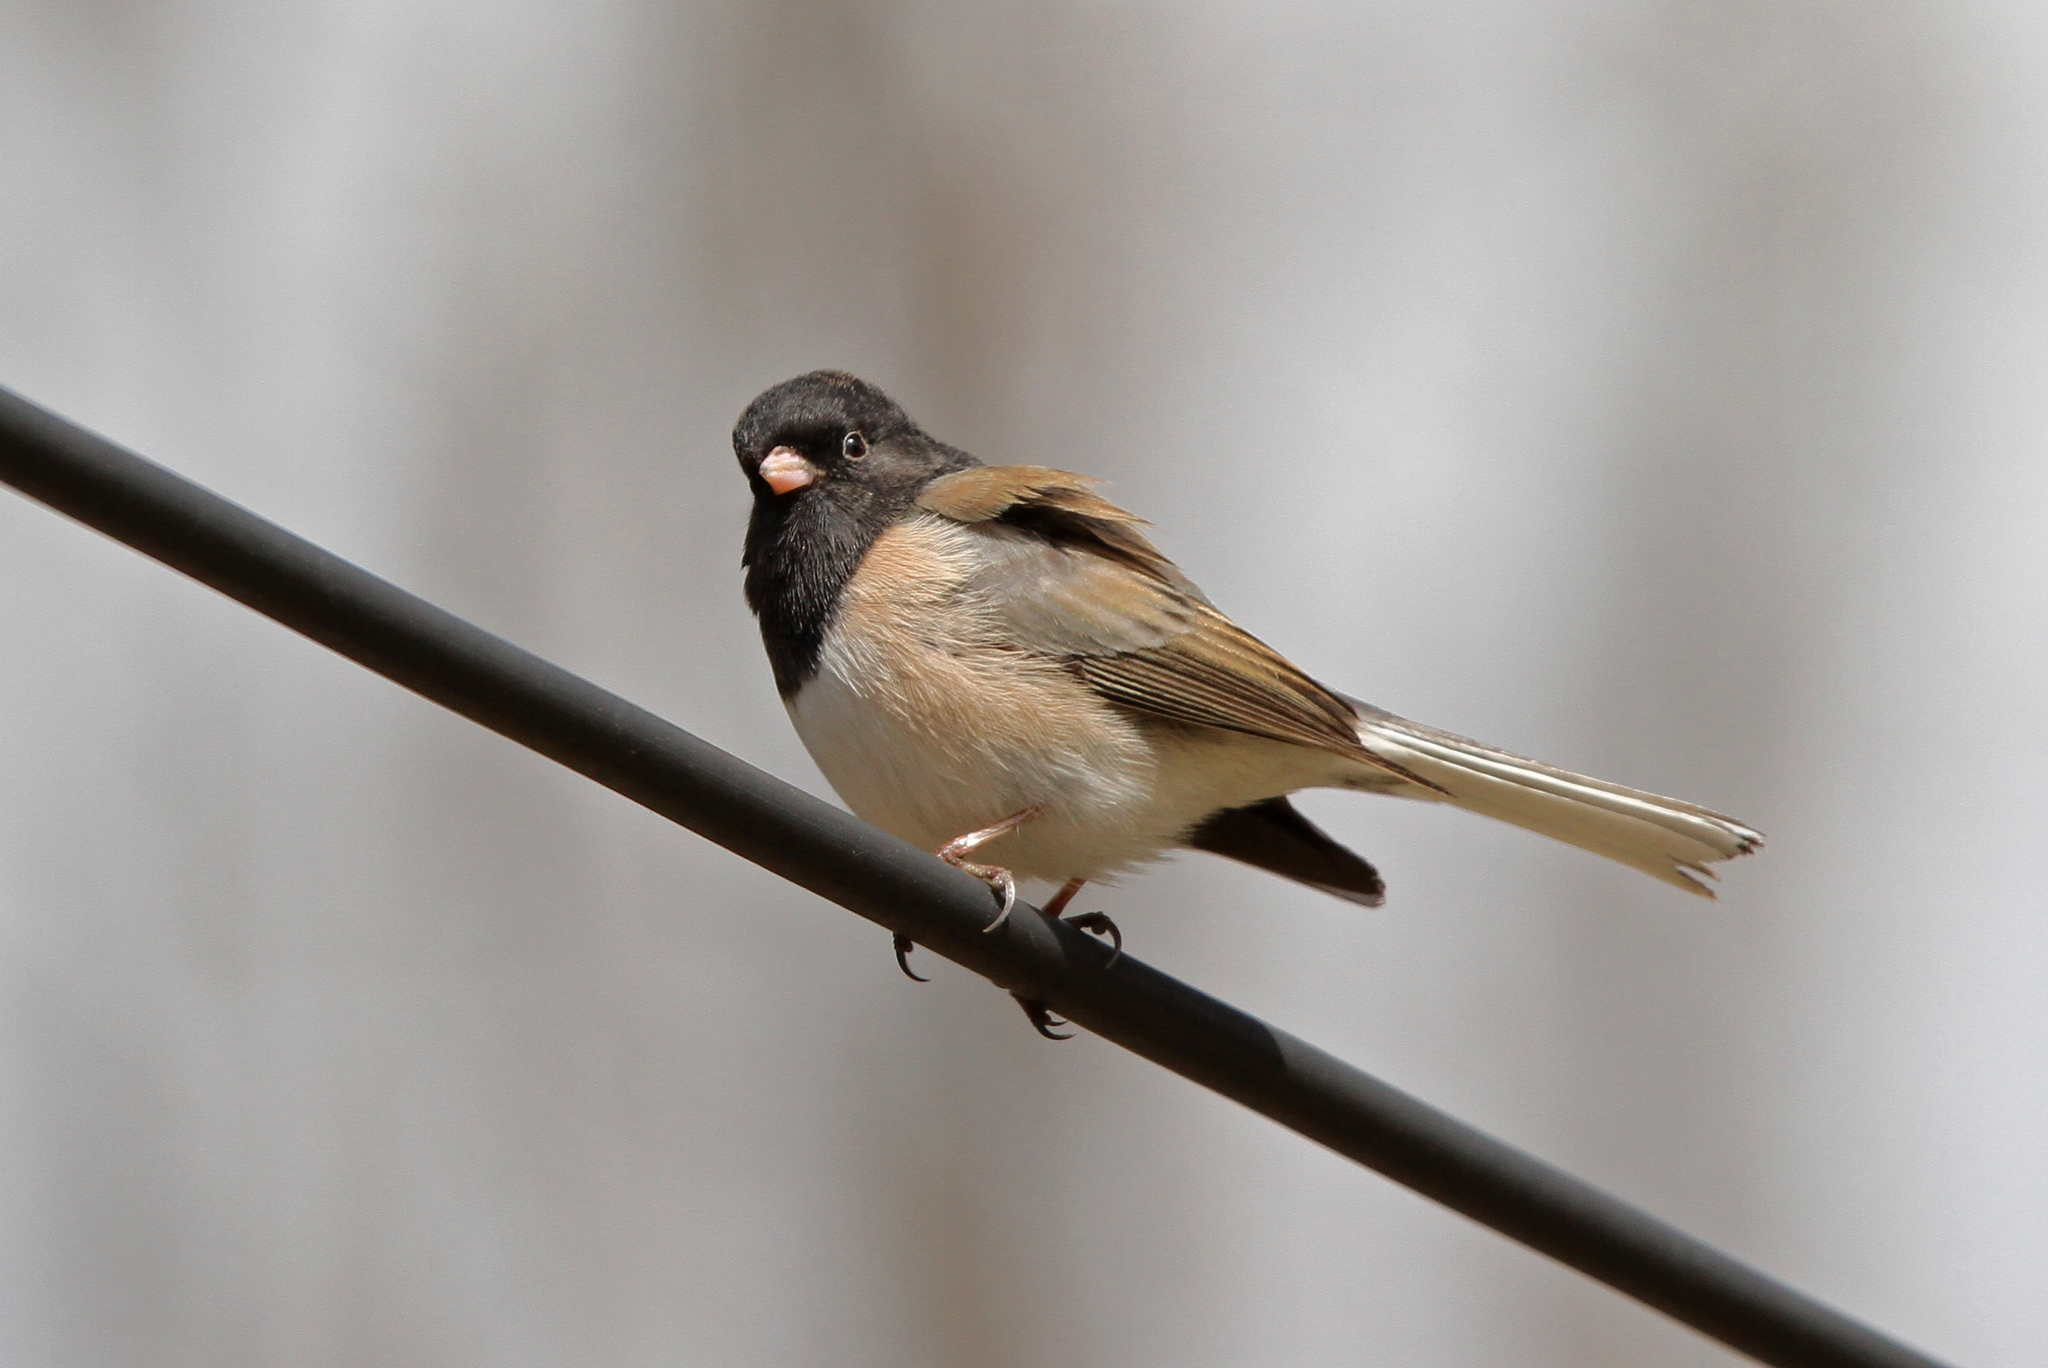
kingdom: Animalia
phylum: Chordata
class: Aves
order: Passeriformes
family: Passerellidae
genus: Junco
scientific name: Junco hyemalis
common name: Dark-eyed junco
